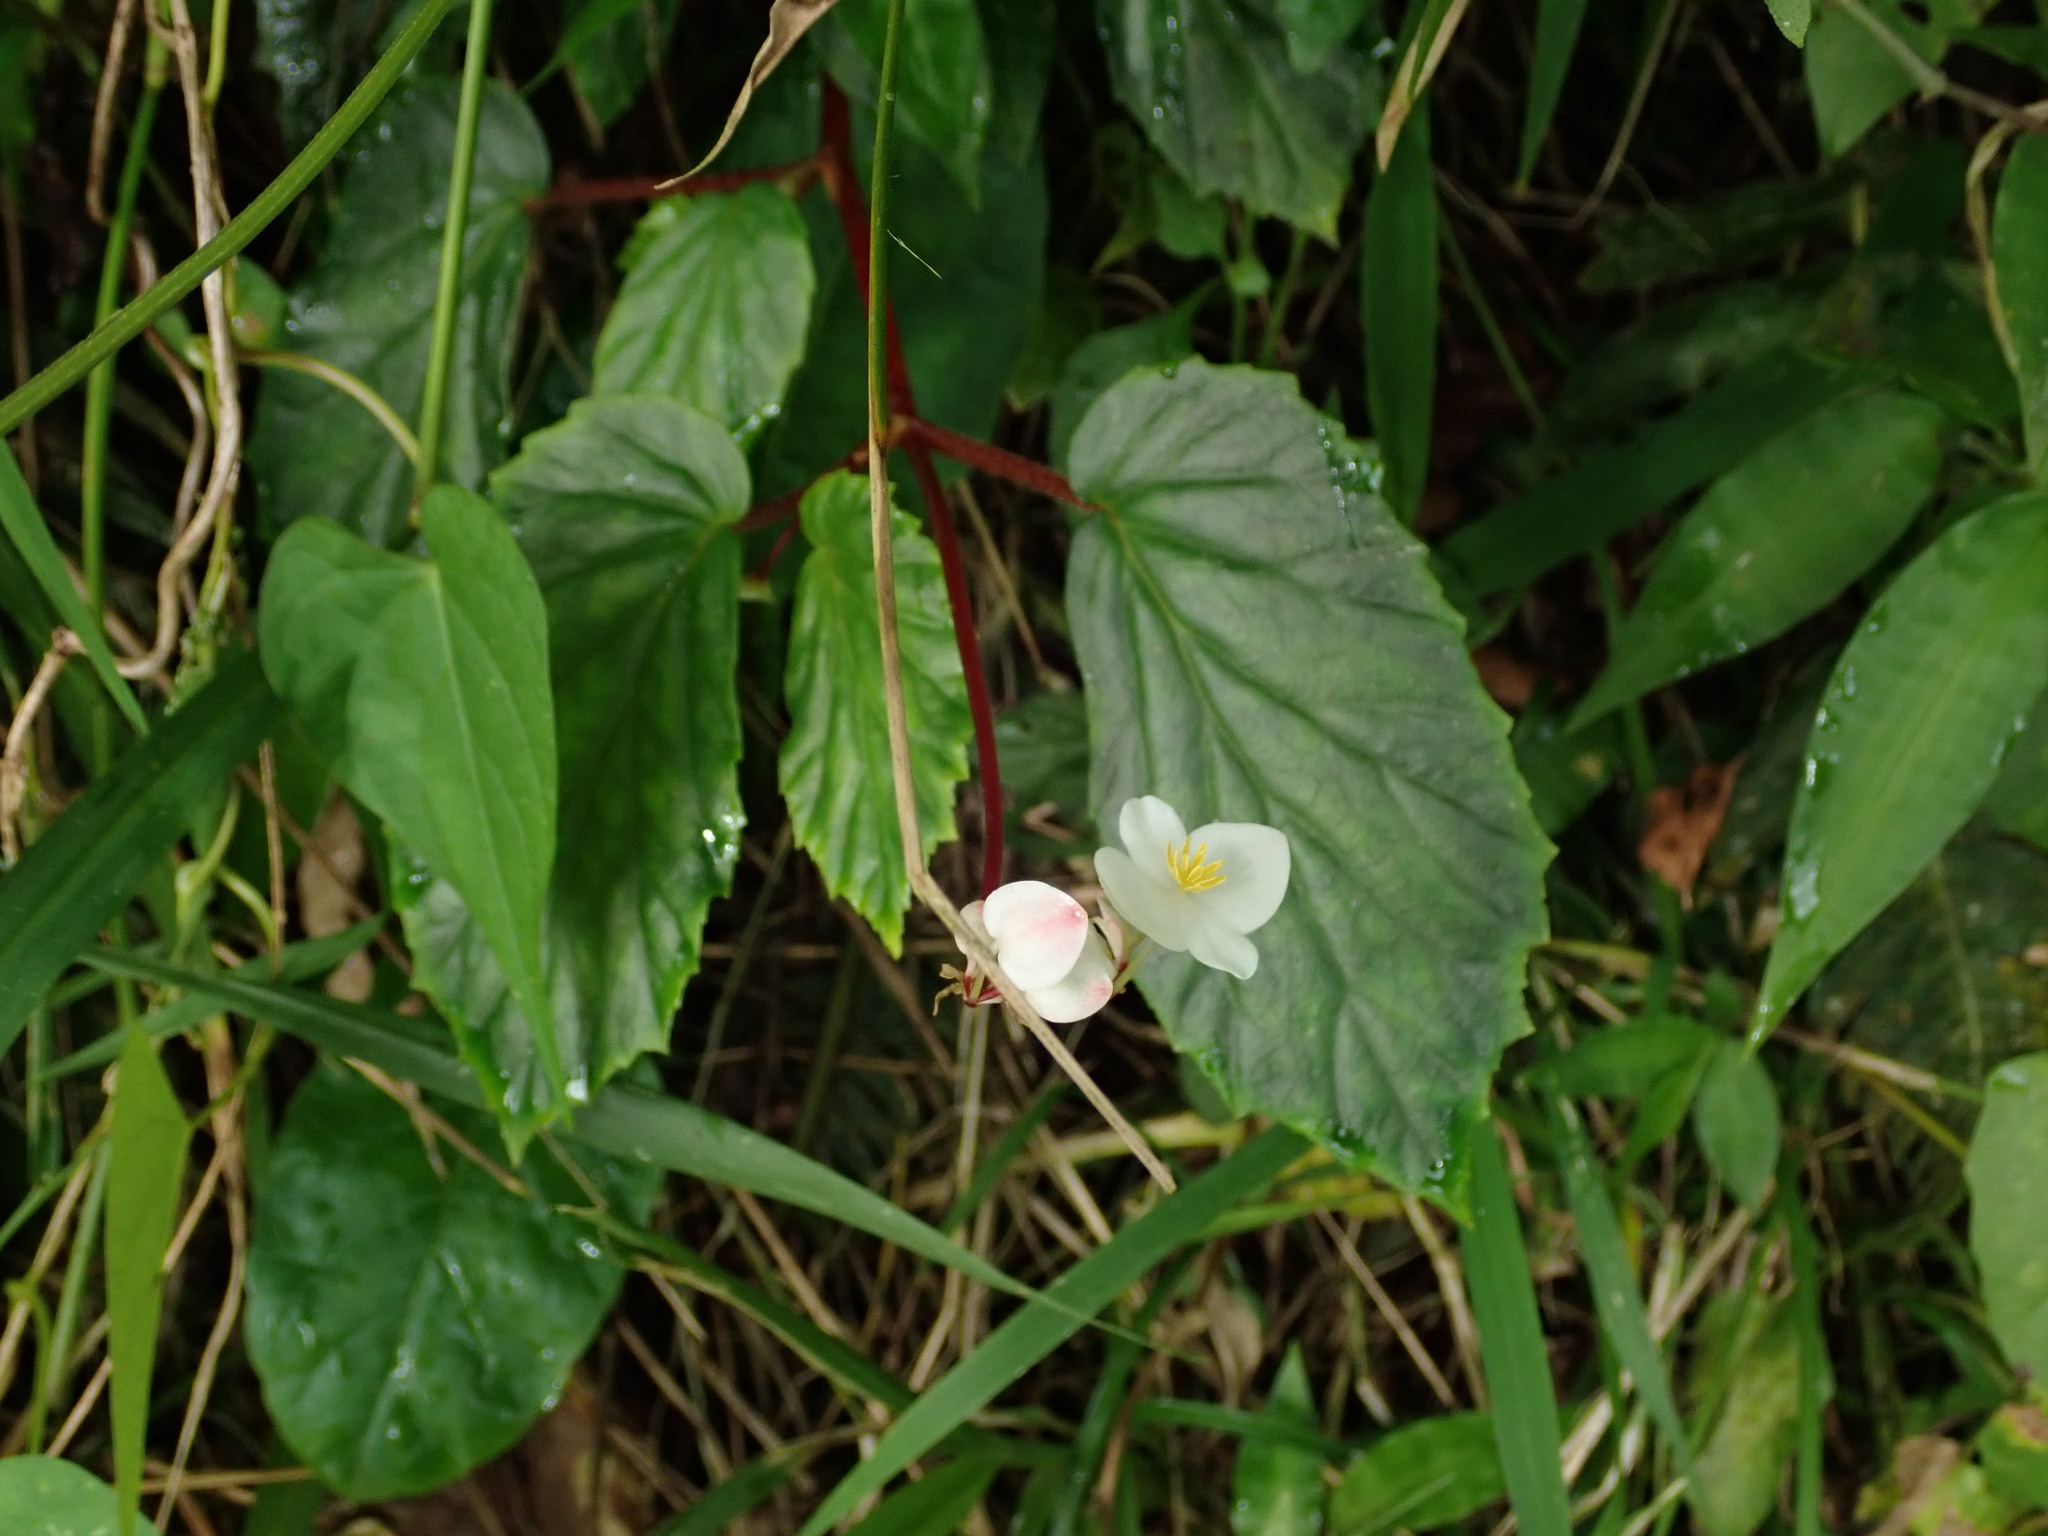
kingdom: Plantae
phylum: Tracheophyta
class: Magnoliopsida
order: Cucurbitales
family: Begoniaceae
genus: Begonia
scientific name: Begonia decandra
